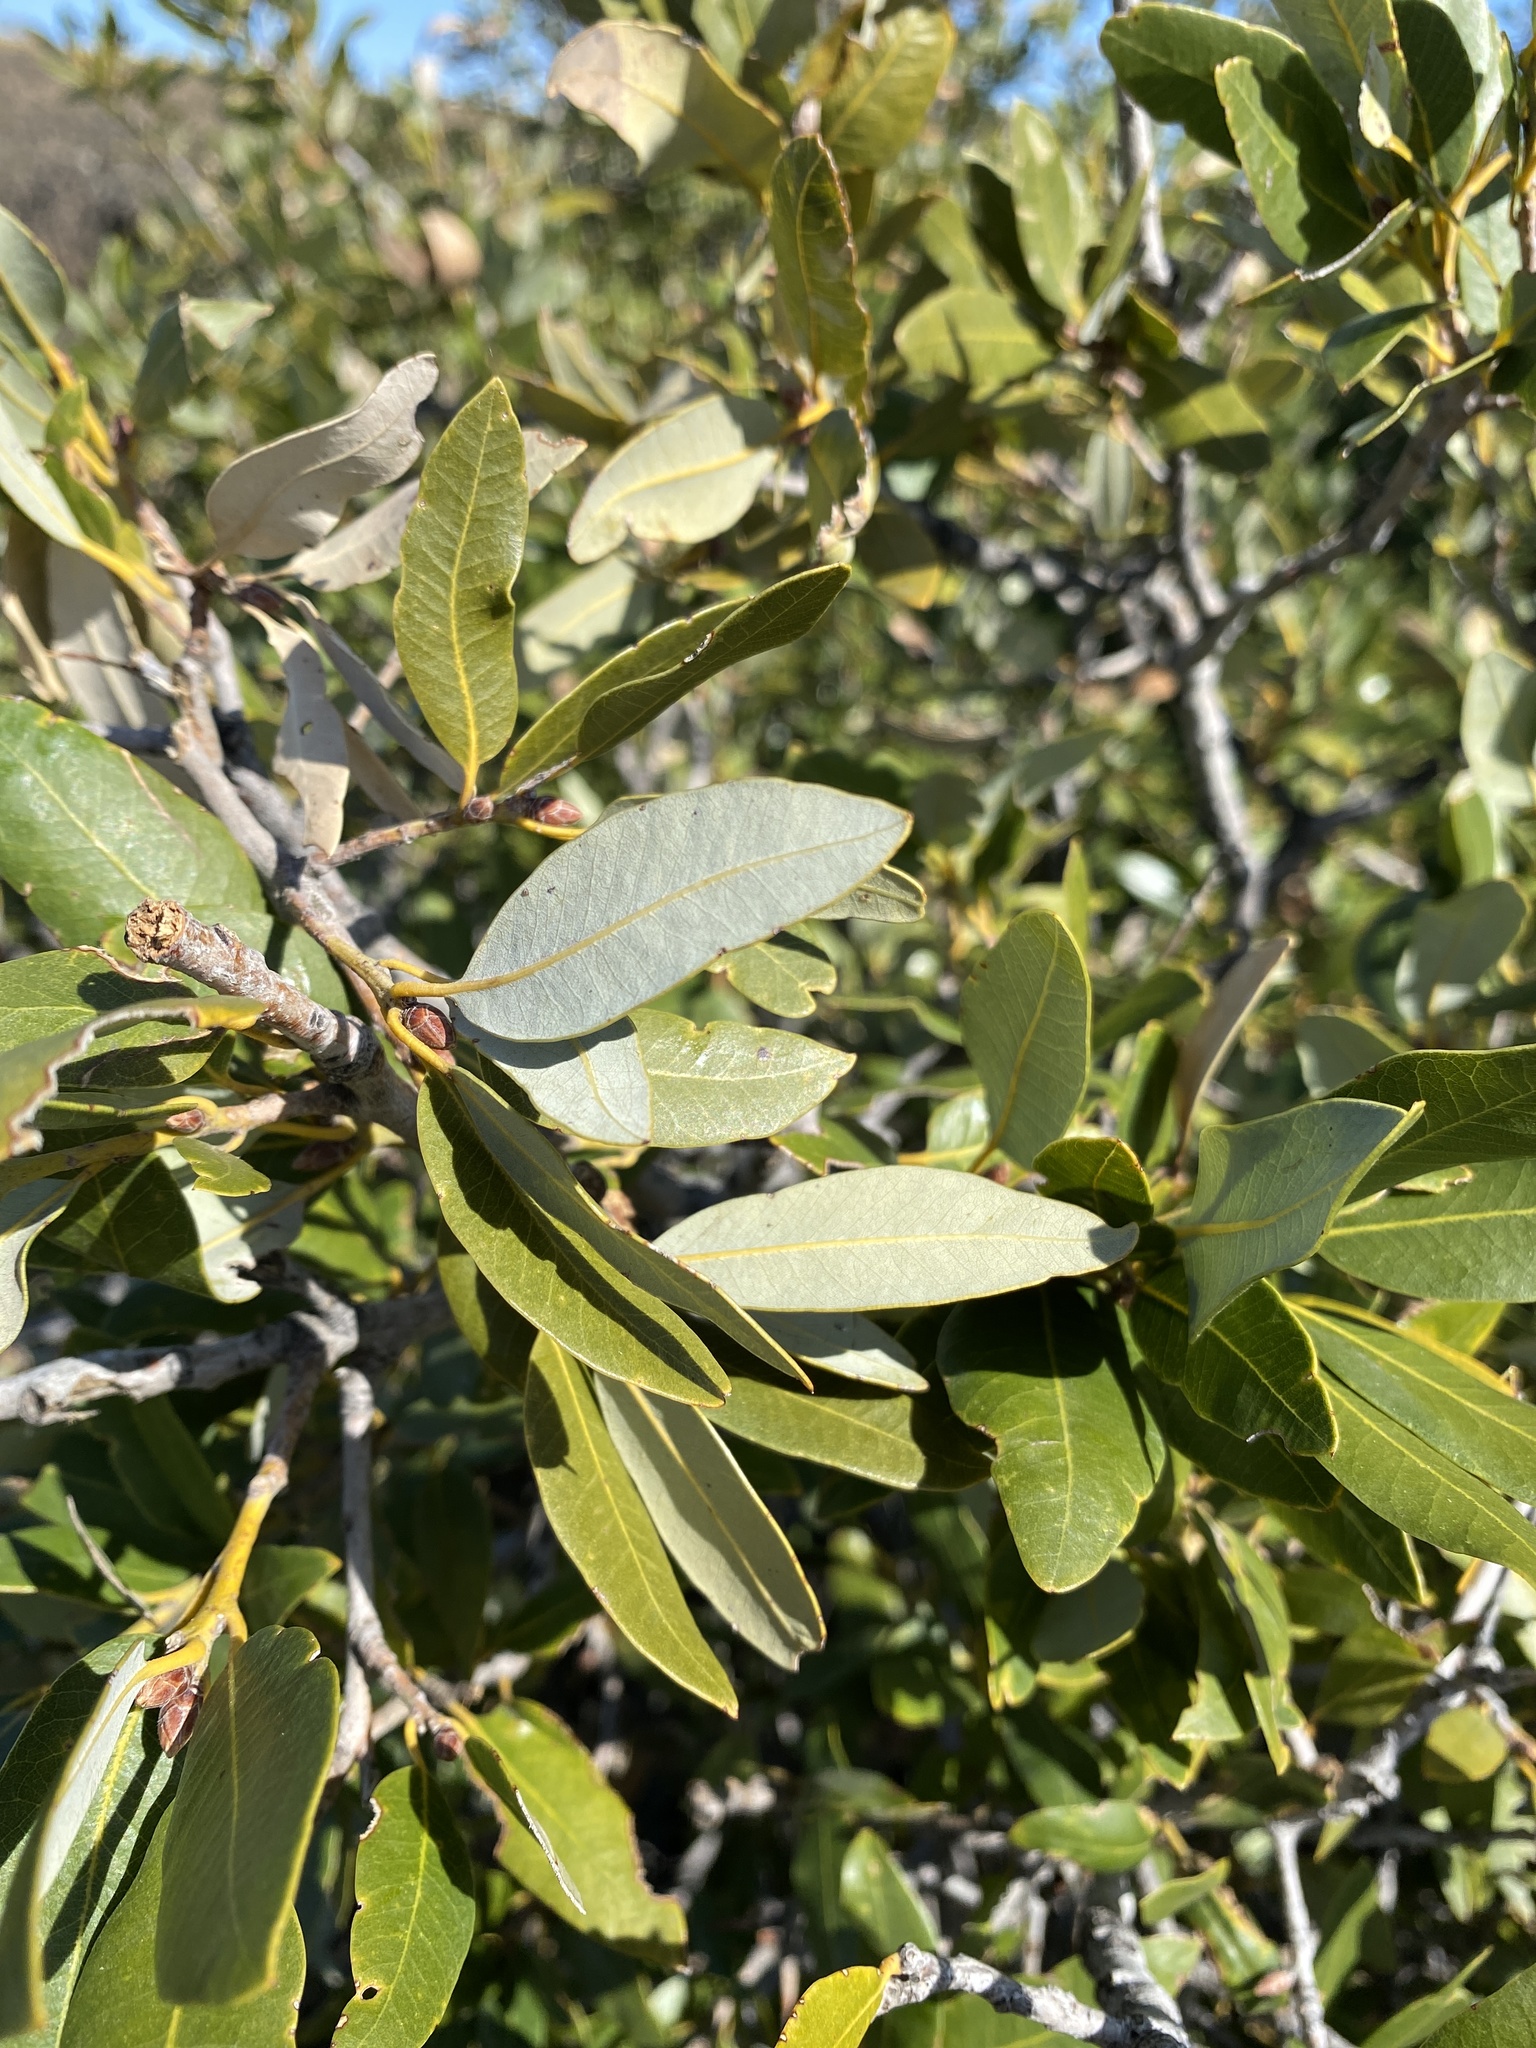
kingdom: Plantae
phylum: Tracheophyta
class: Magnoliopsida
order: Fagales
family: Fagaceae
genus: Quercus
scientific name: Quercus chrysolepis
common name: Canyon live oak
